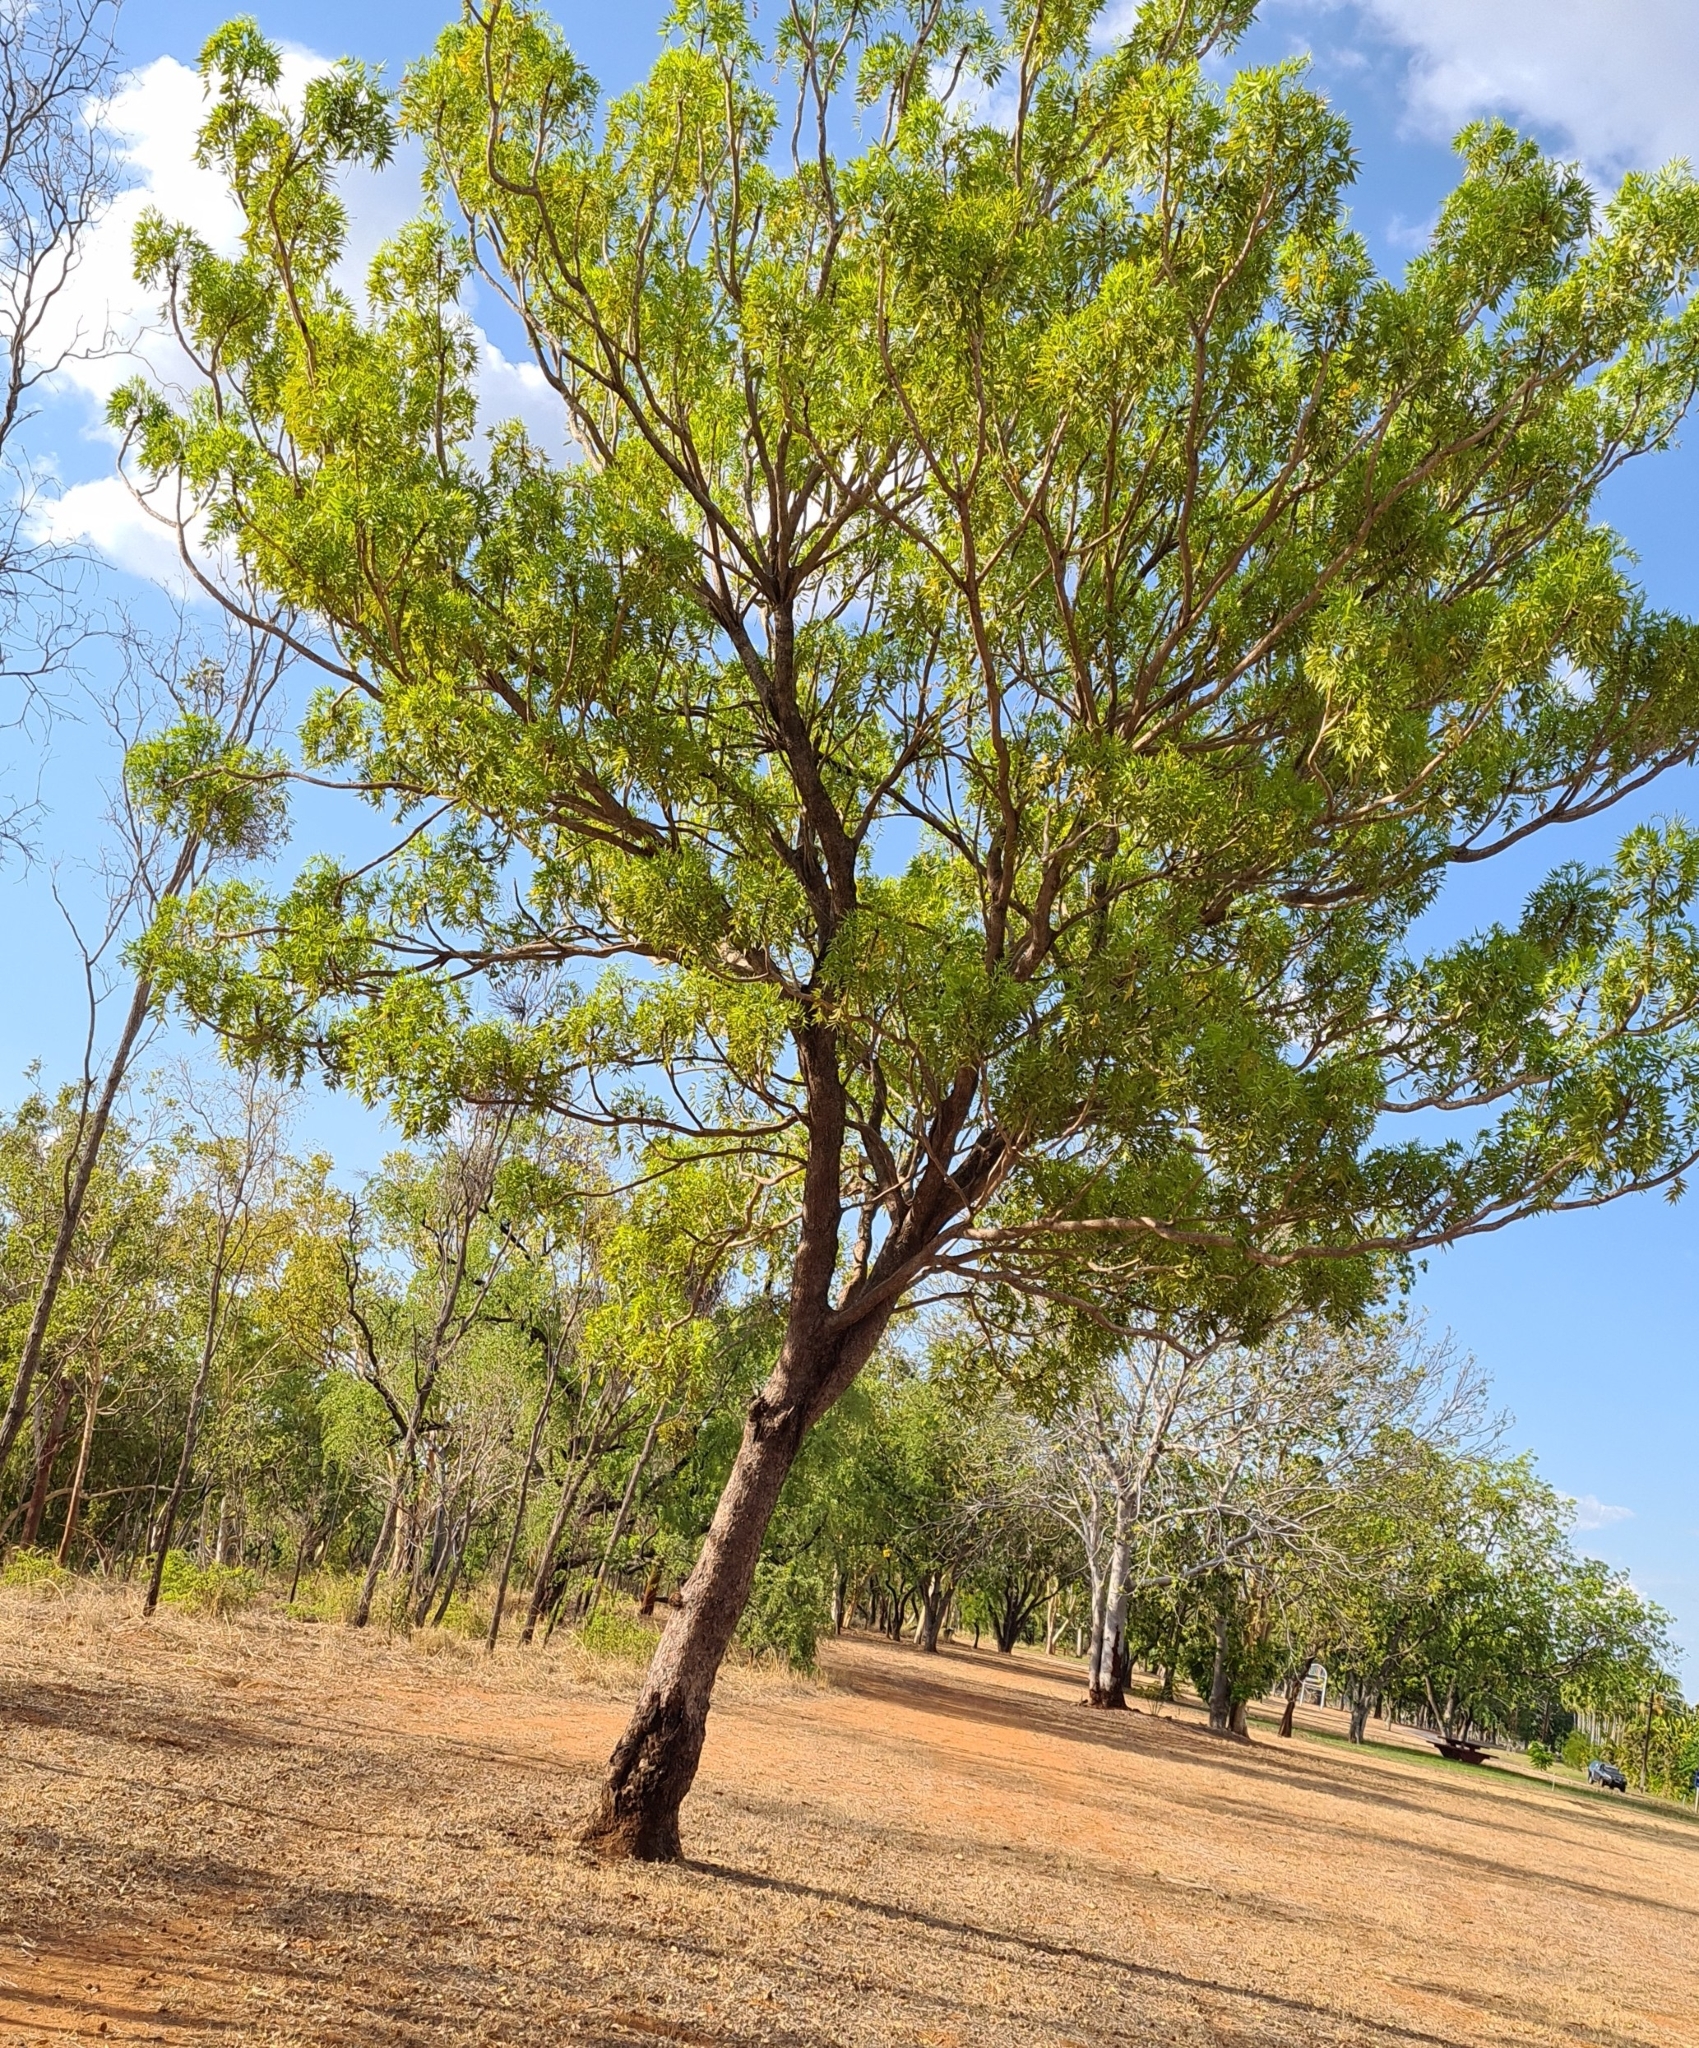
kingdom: Plantae
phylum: Tracheophyta
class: Magnoliopsida
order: Sapindales
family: Meliaceae
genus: Owenia
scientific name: Owenia vernicosa
